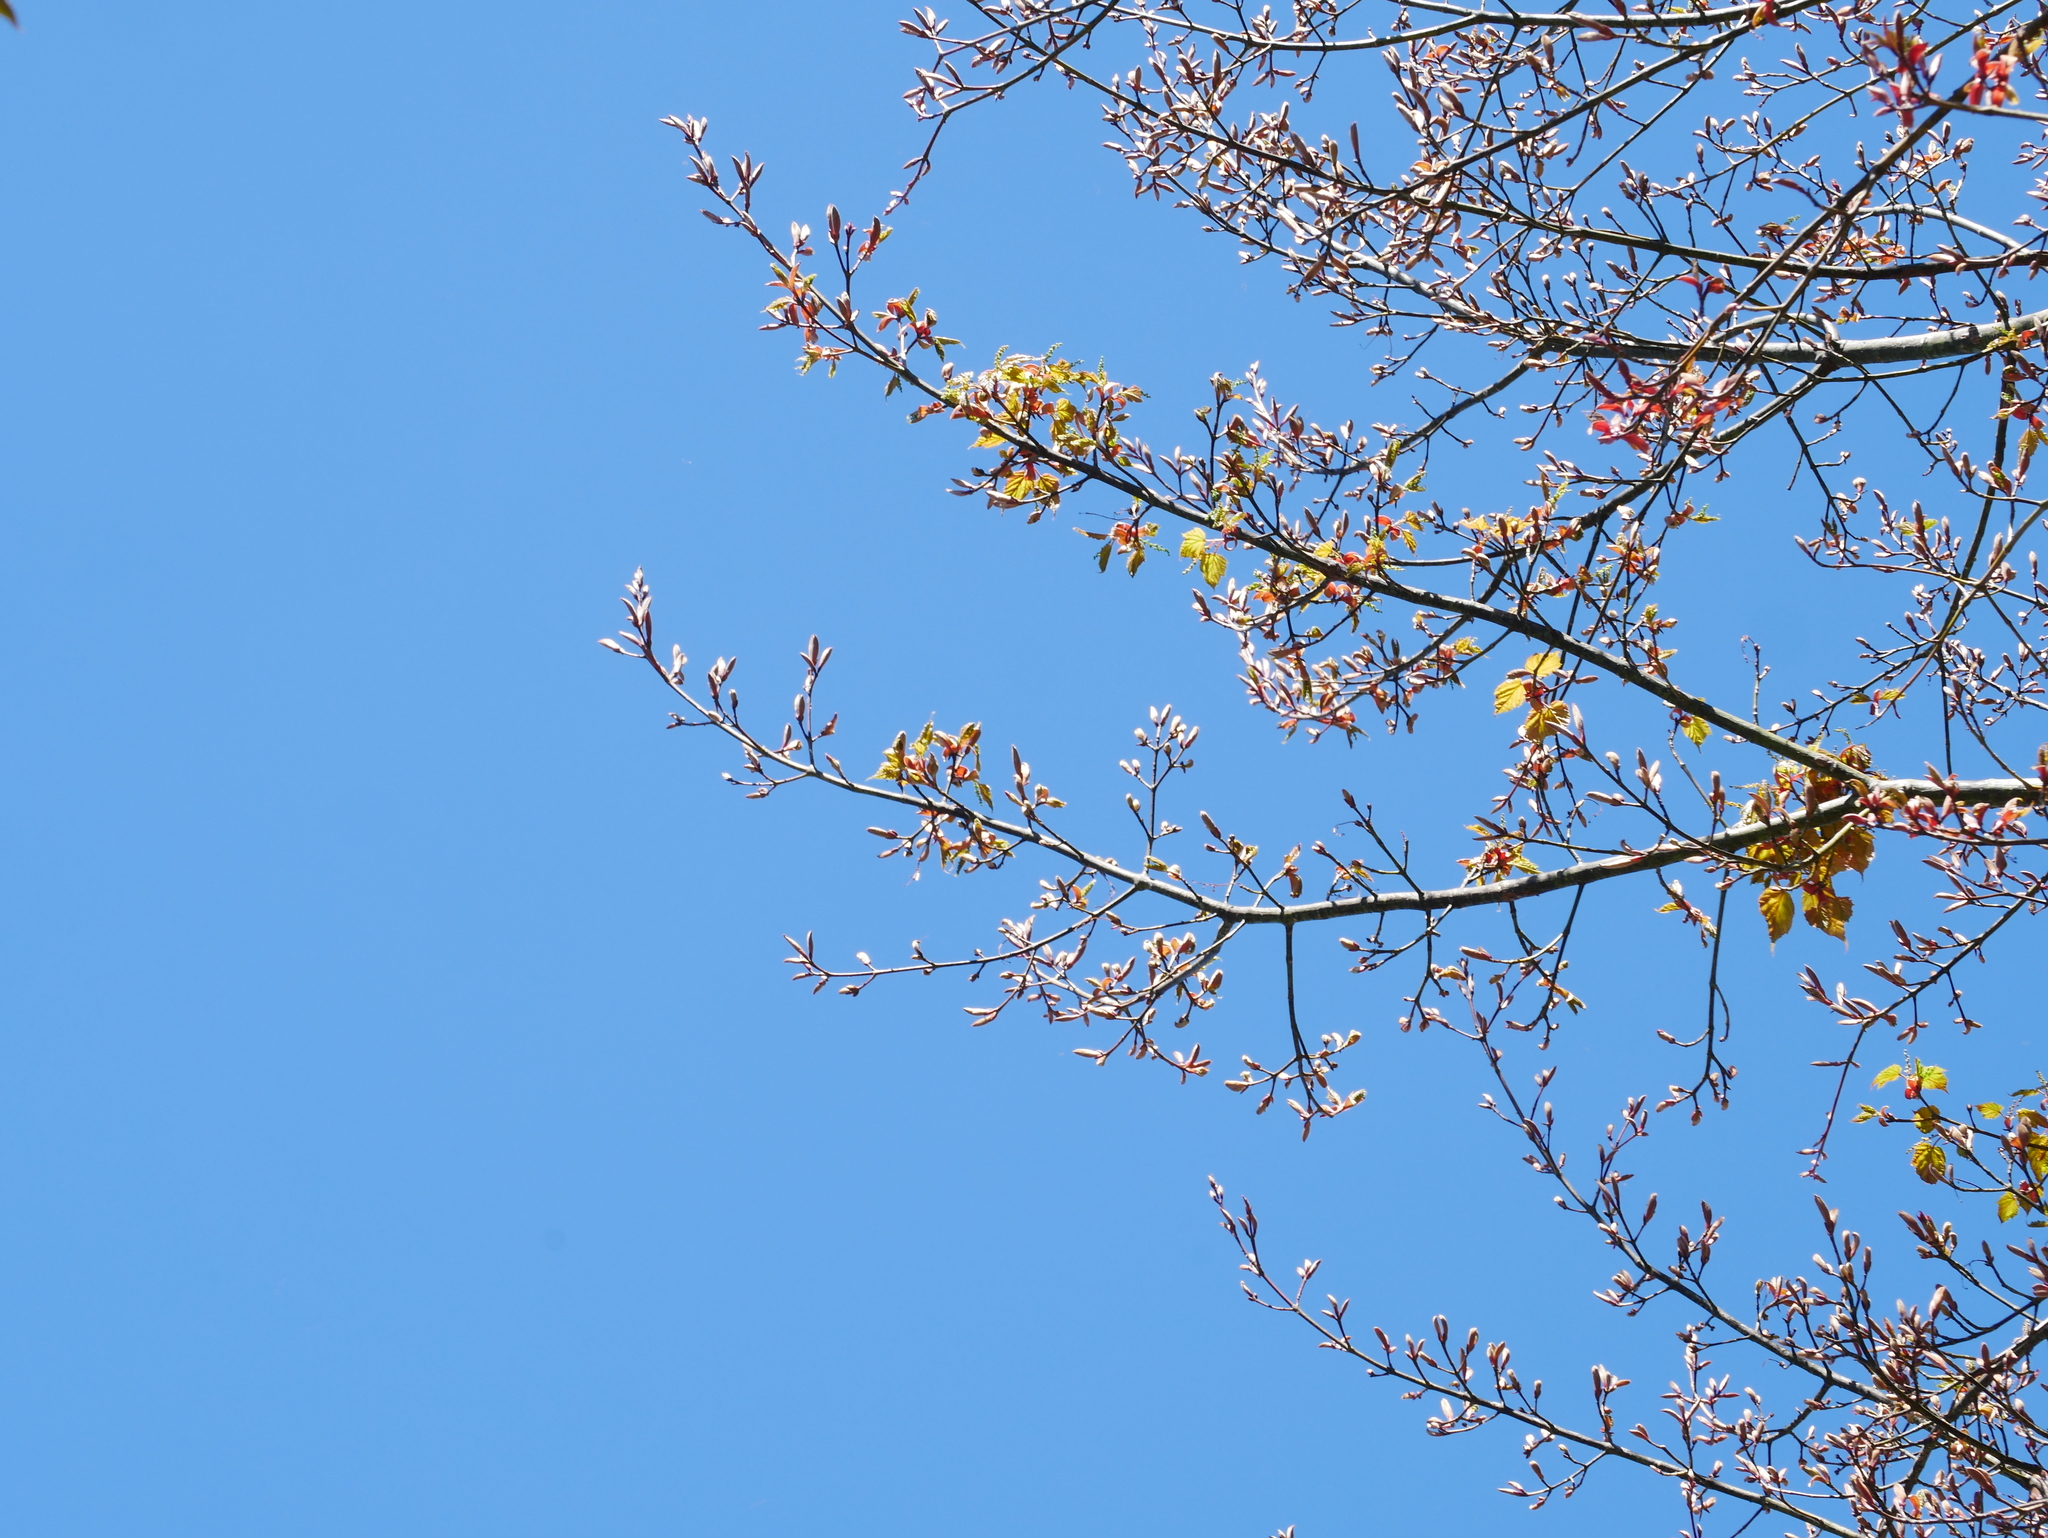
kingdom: Plantae
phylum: Tracheophyta
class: Magnoliopsida
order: Sapindales
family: Sapindaceae
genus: Acer
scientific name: Acer caudatifolium
